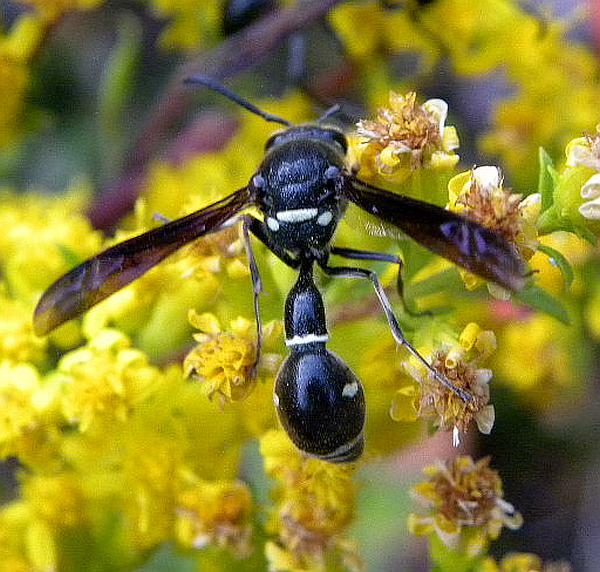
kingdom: Animalia
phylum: Arthropoda
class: Insecta
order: Hymenoptera
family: Vespidae
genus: Eumenes
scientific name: Eumenes fraternus
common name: Fraternal potter wasp
